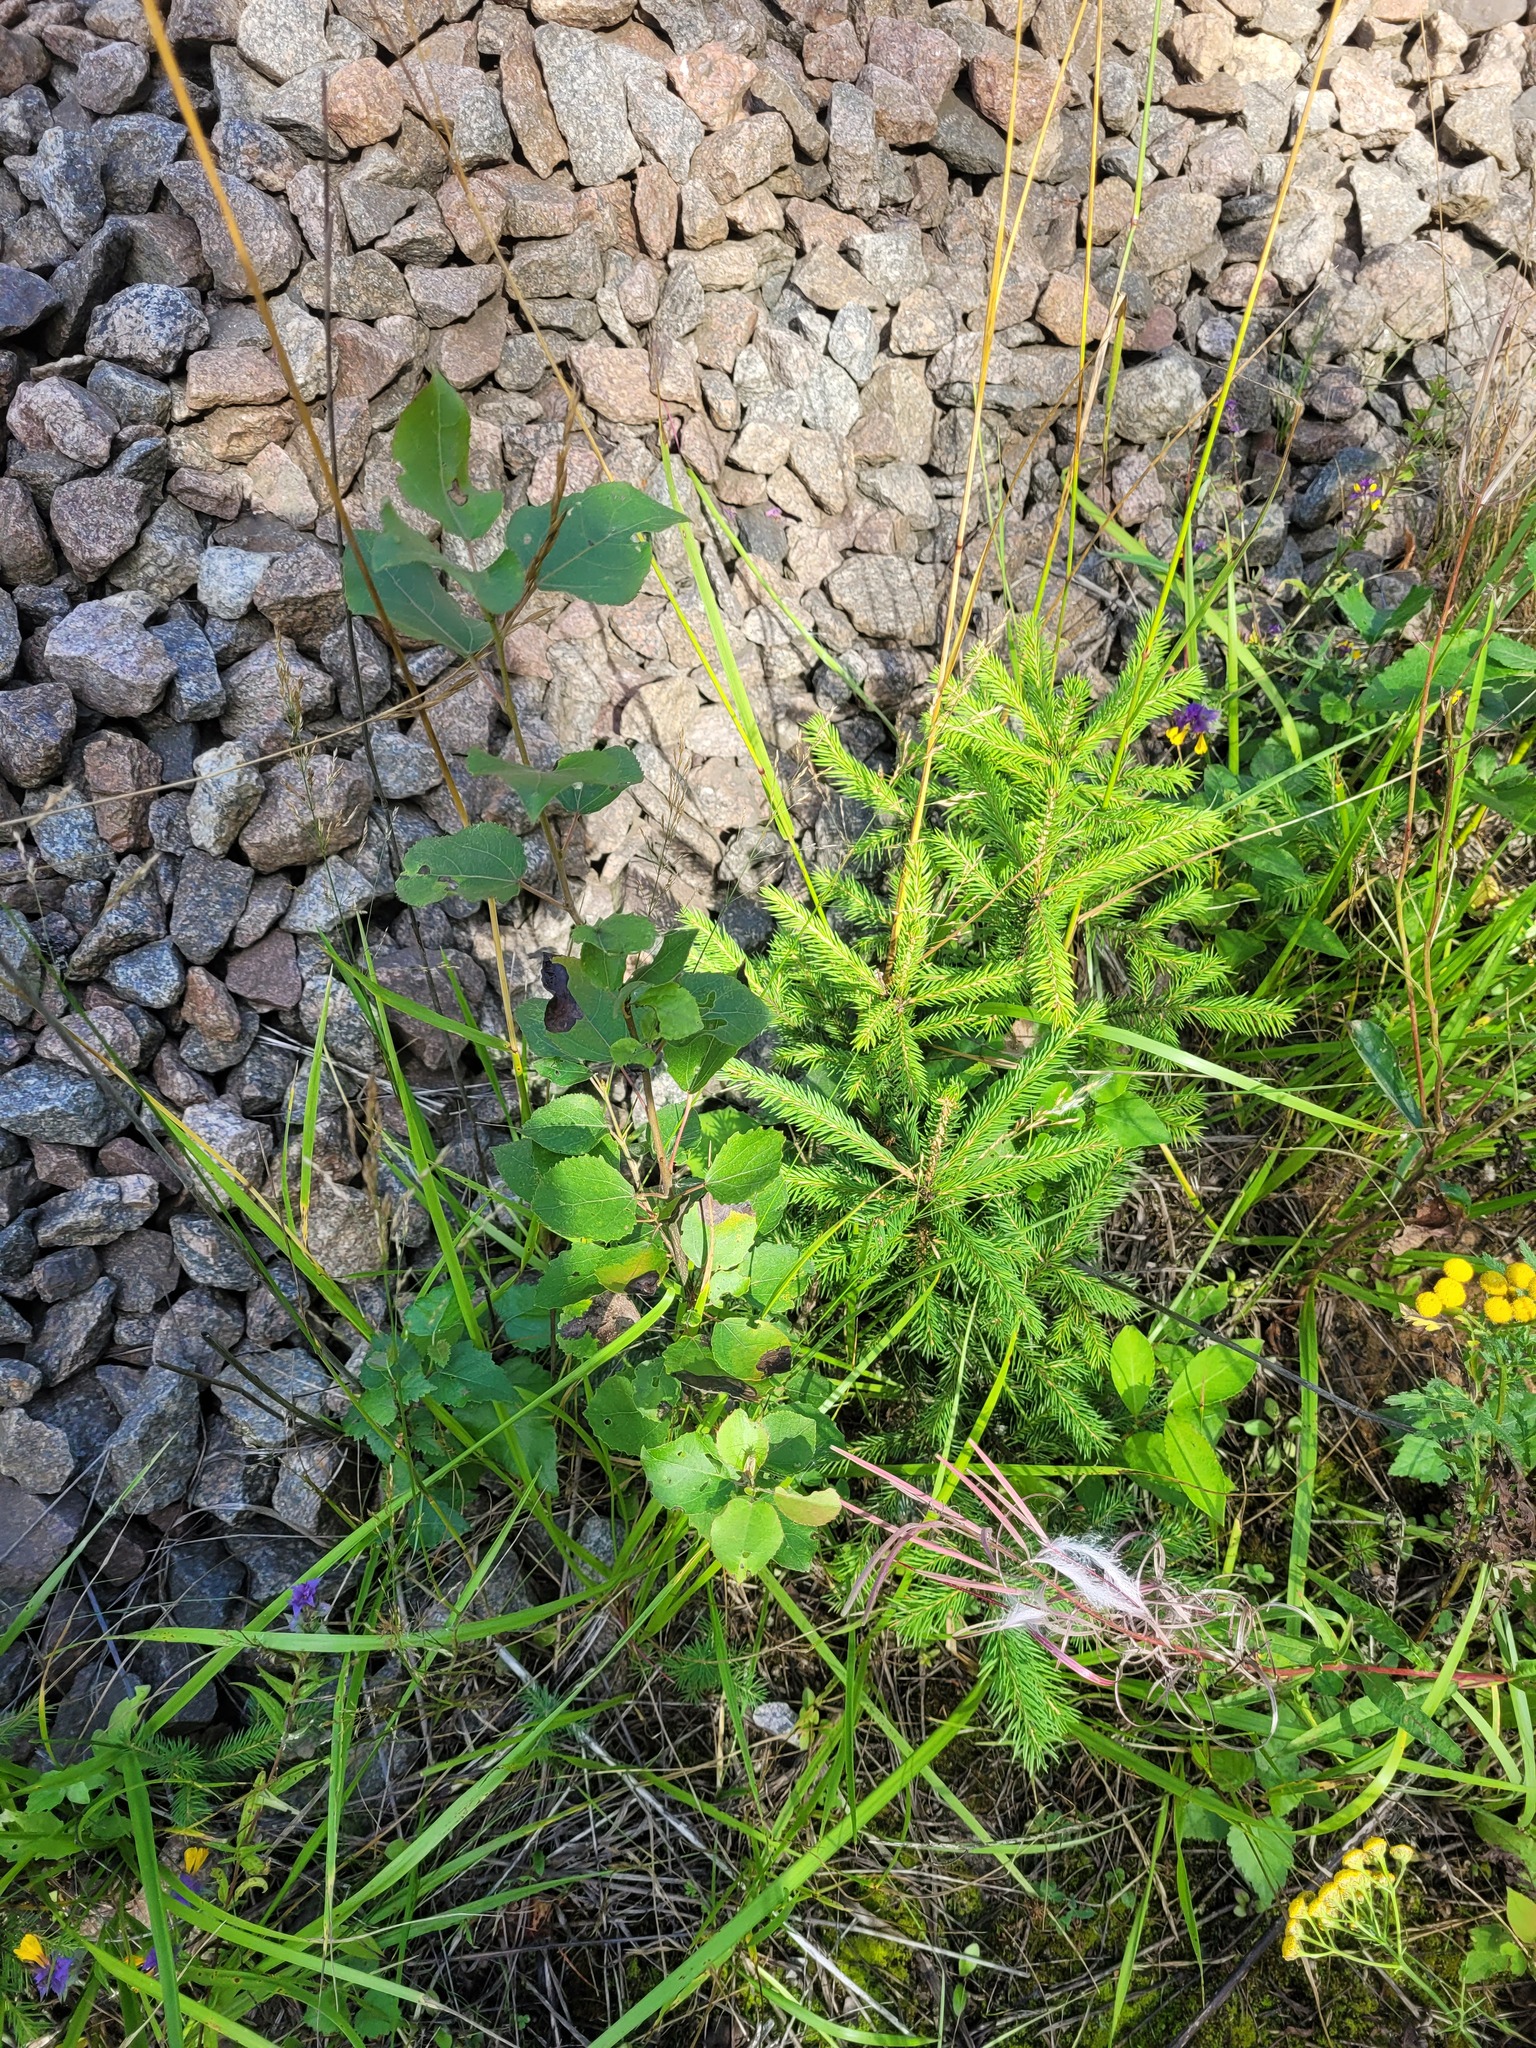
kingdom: Plantae
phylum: Tracheophyta
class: Magnoliopsida
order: Malpighiales
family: Salicaceae
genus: Populus
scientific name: Populus tremula
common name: European aspen
